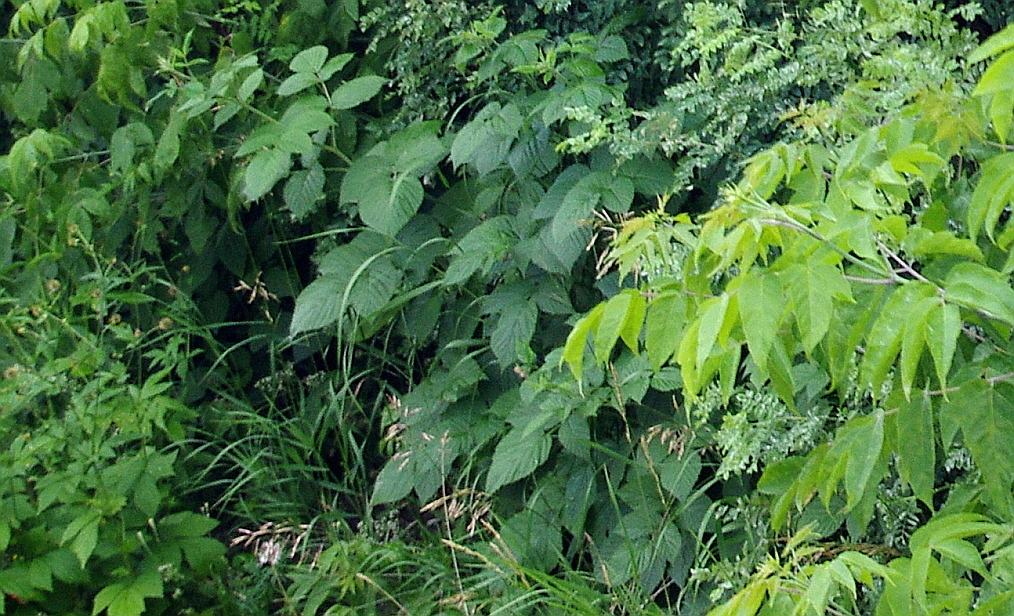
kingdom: Plantae
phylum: Tracheophyta
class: Magnoliopsida
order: Rosales
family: Rosaceae
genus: Rubus
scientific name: Rubus idaeus
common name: Raspberry
